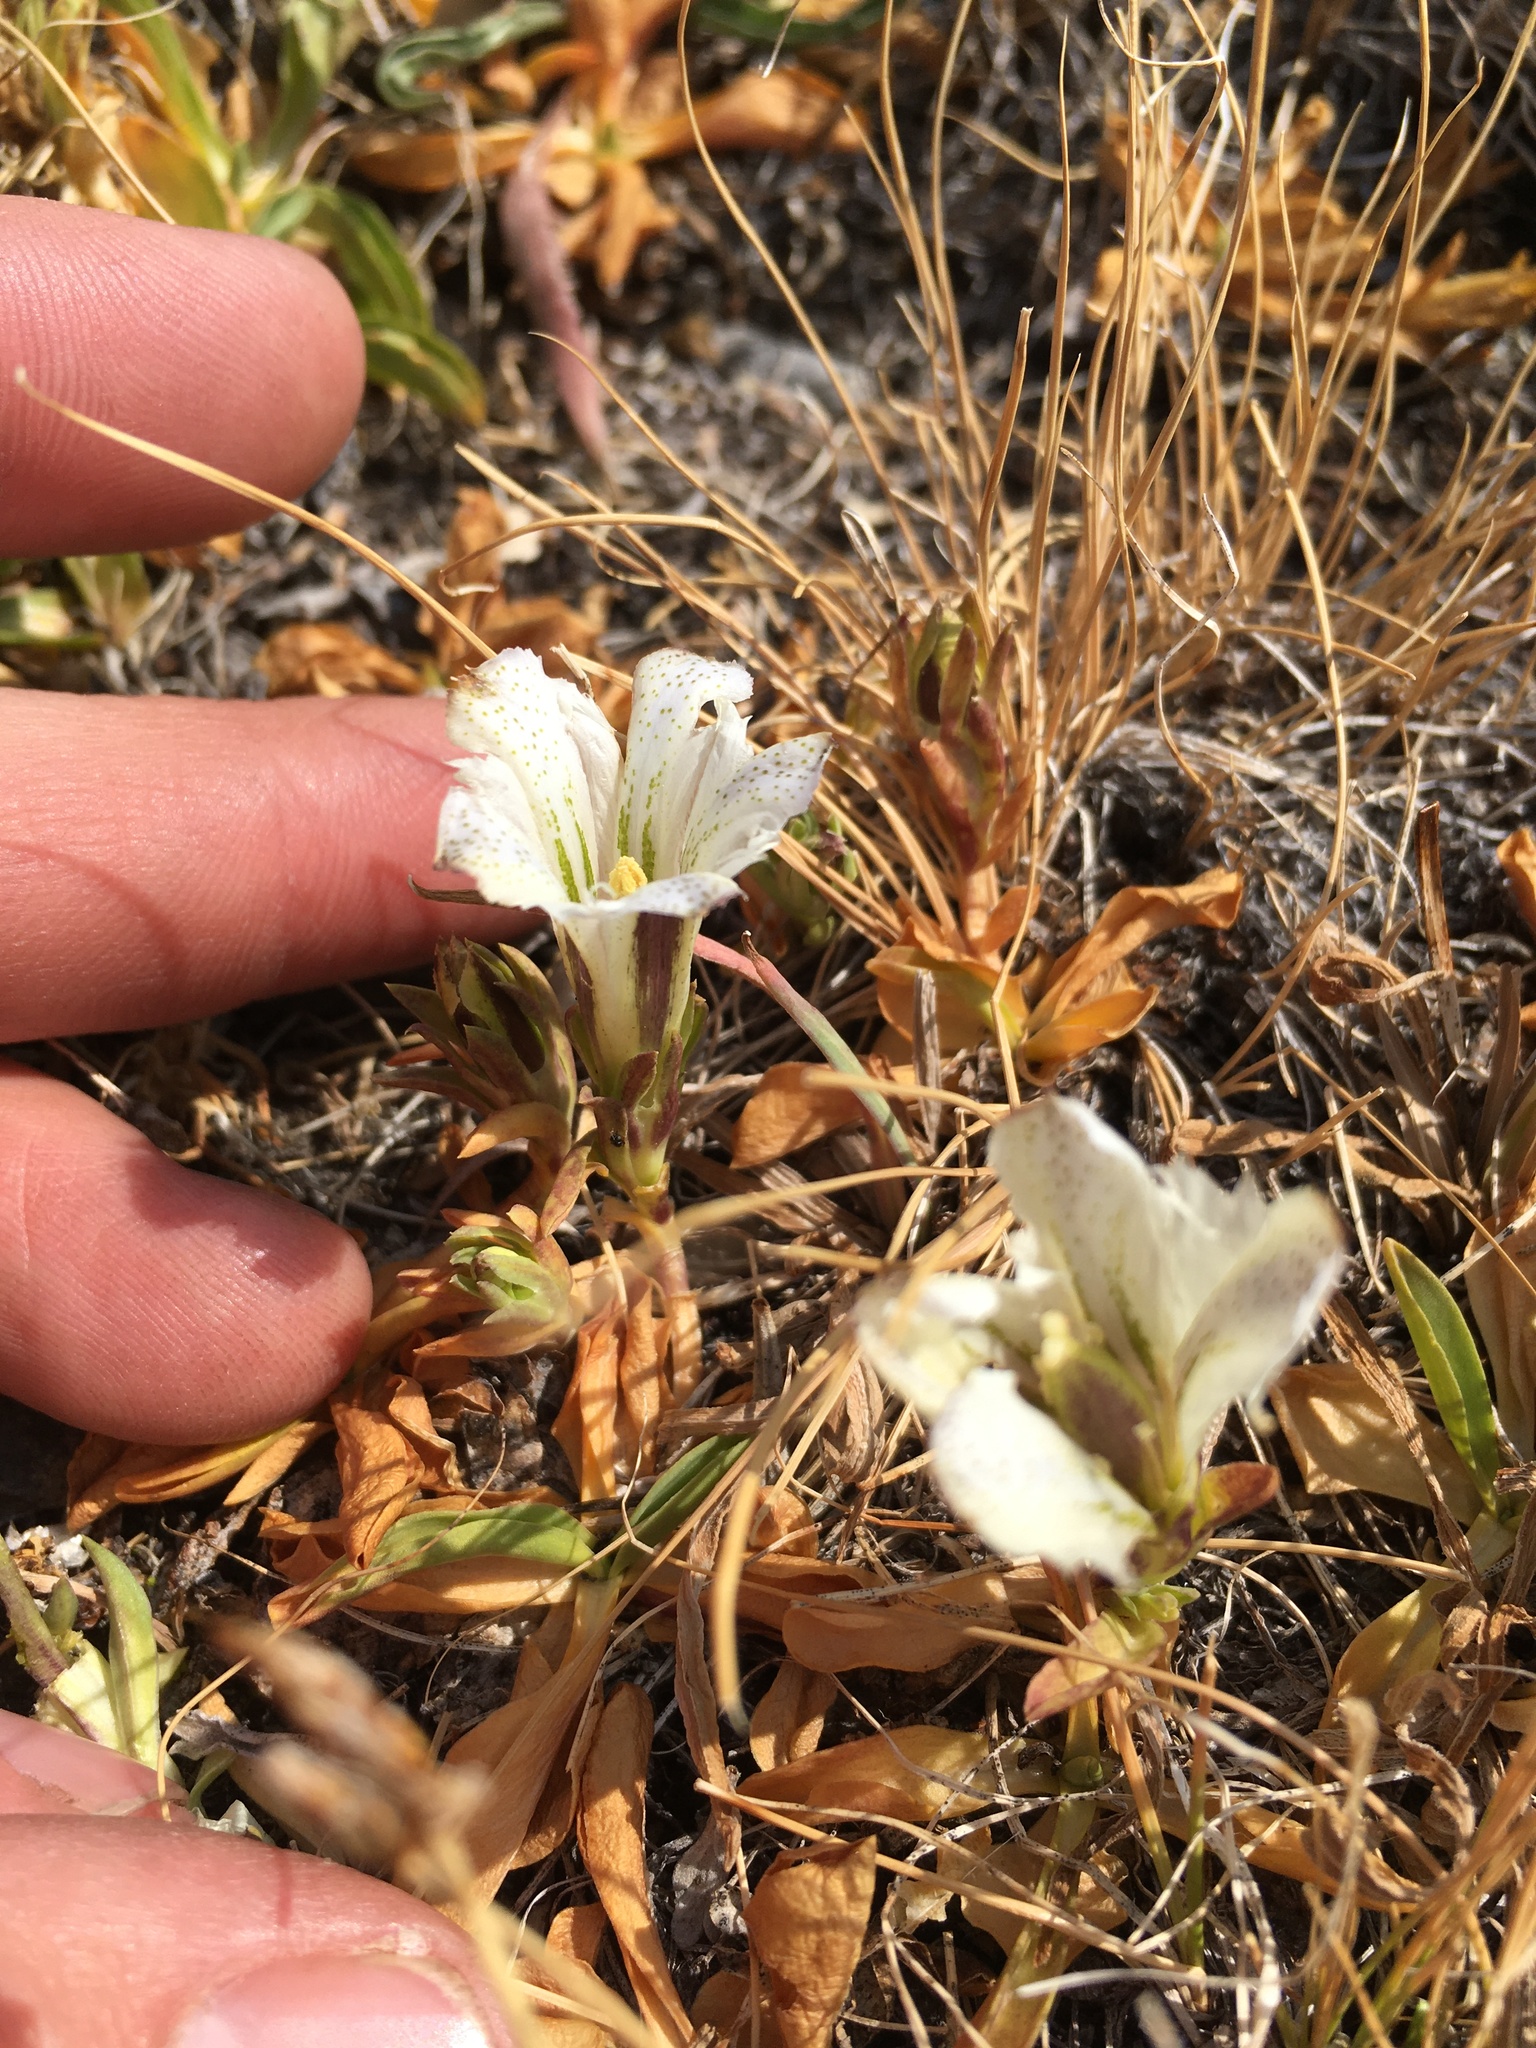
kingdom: Plantae
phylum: Tracheophyta
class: Magnoliopsida
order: Gentianales
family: Gentianaceae
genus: Gentiana
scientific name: Gentiana newberryi
